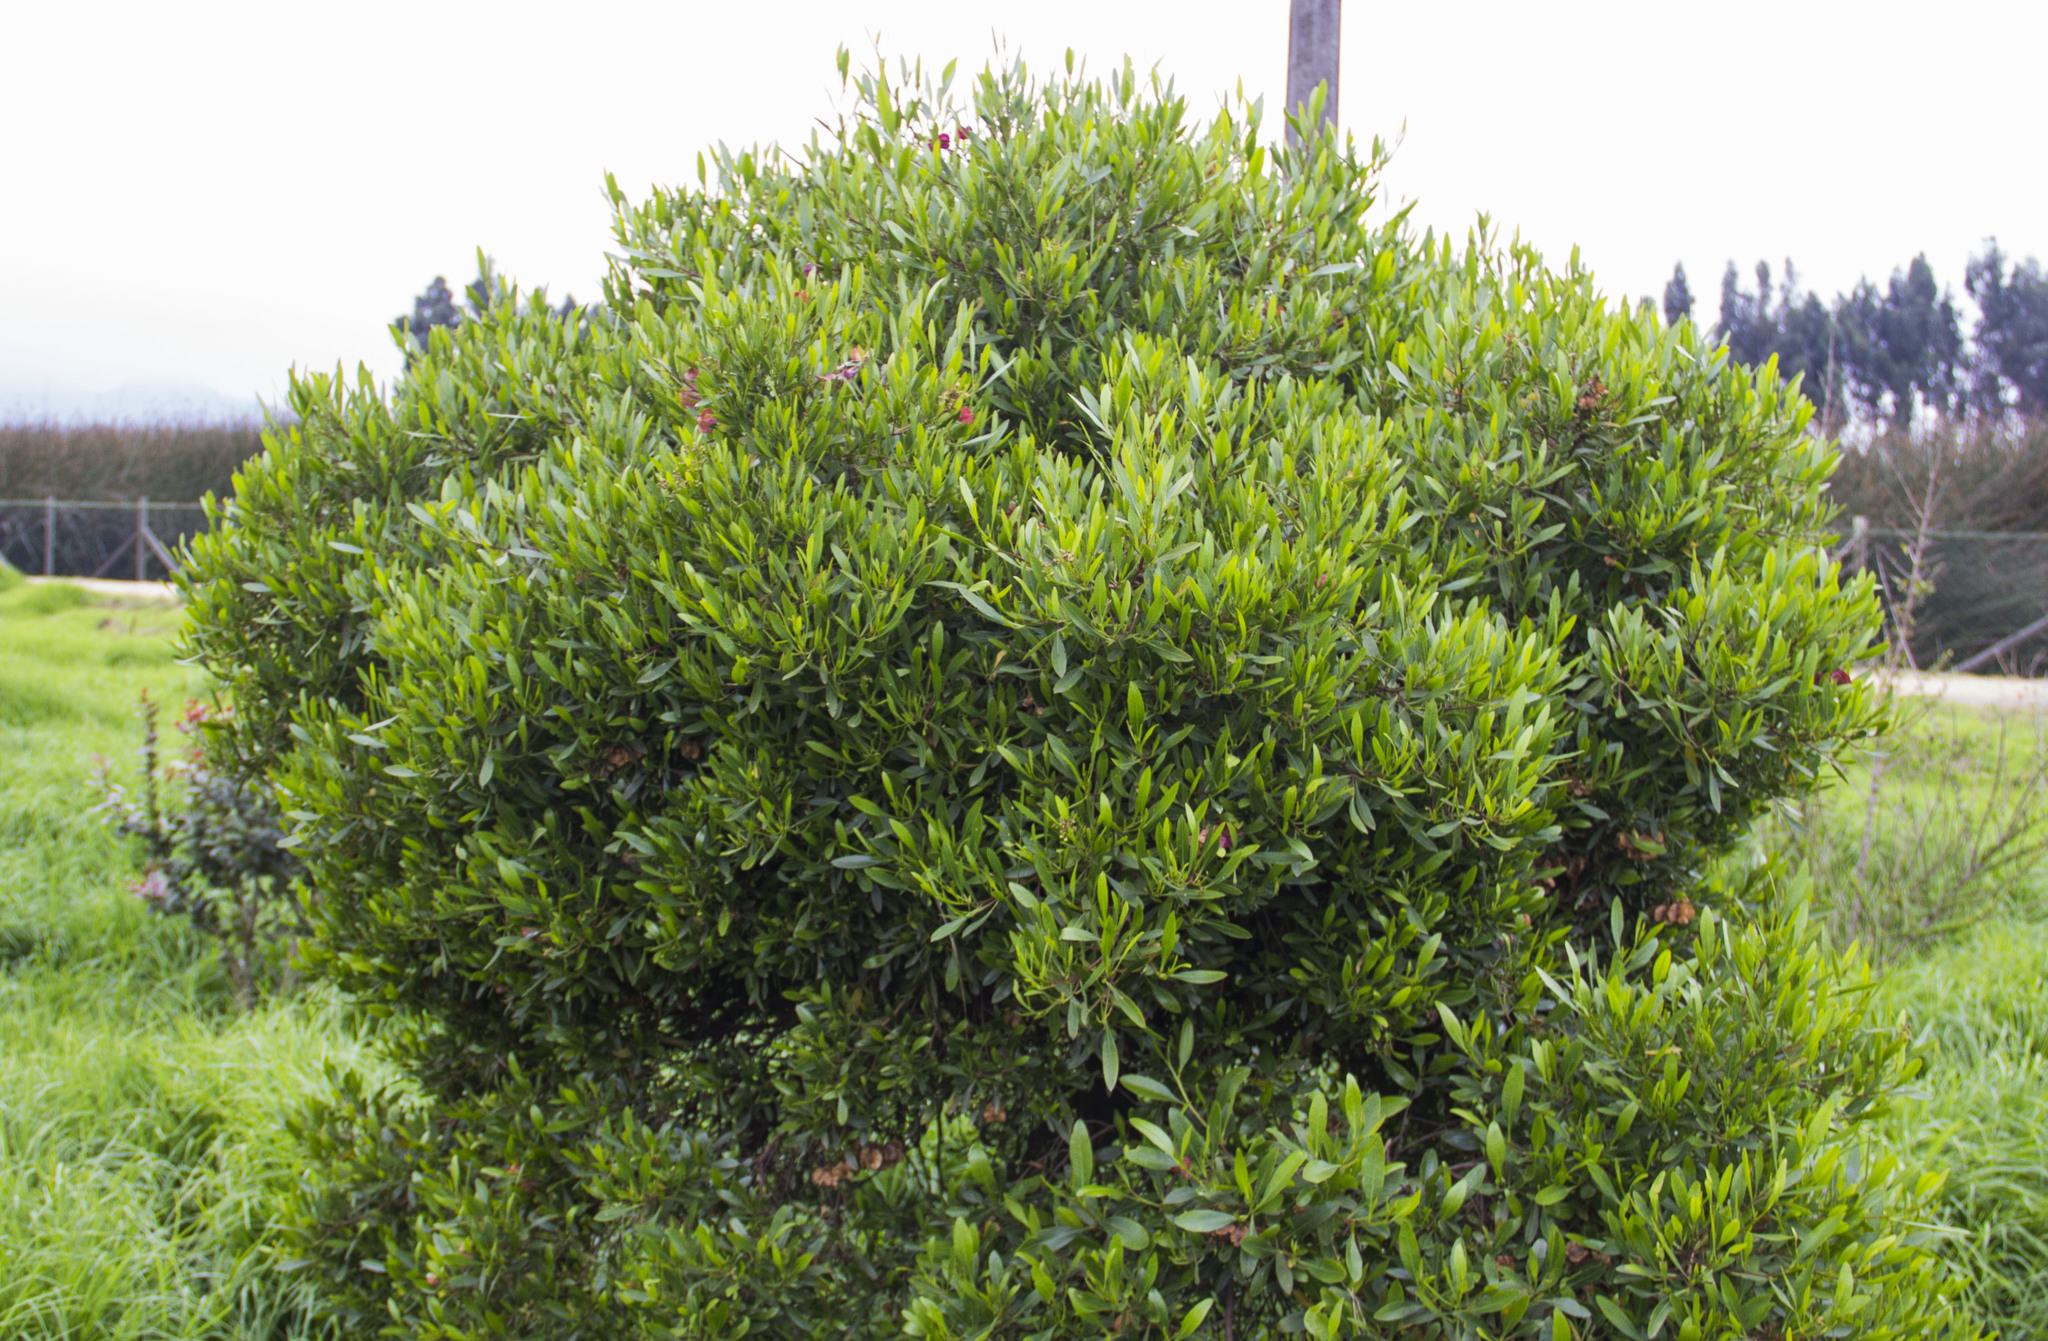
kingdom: Plantae
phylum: Tracheophyta
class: Magnoliopsida
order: Sapindales
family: Sapindaceae
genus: Dodonaea
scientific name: Dodonaea viscosa
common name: Hopbush
